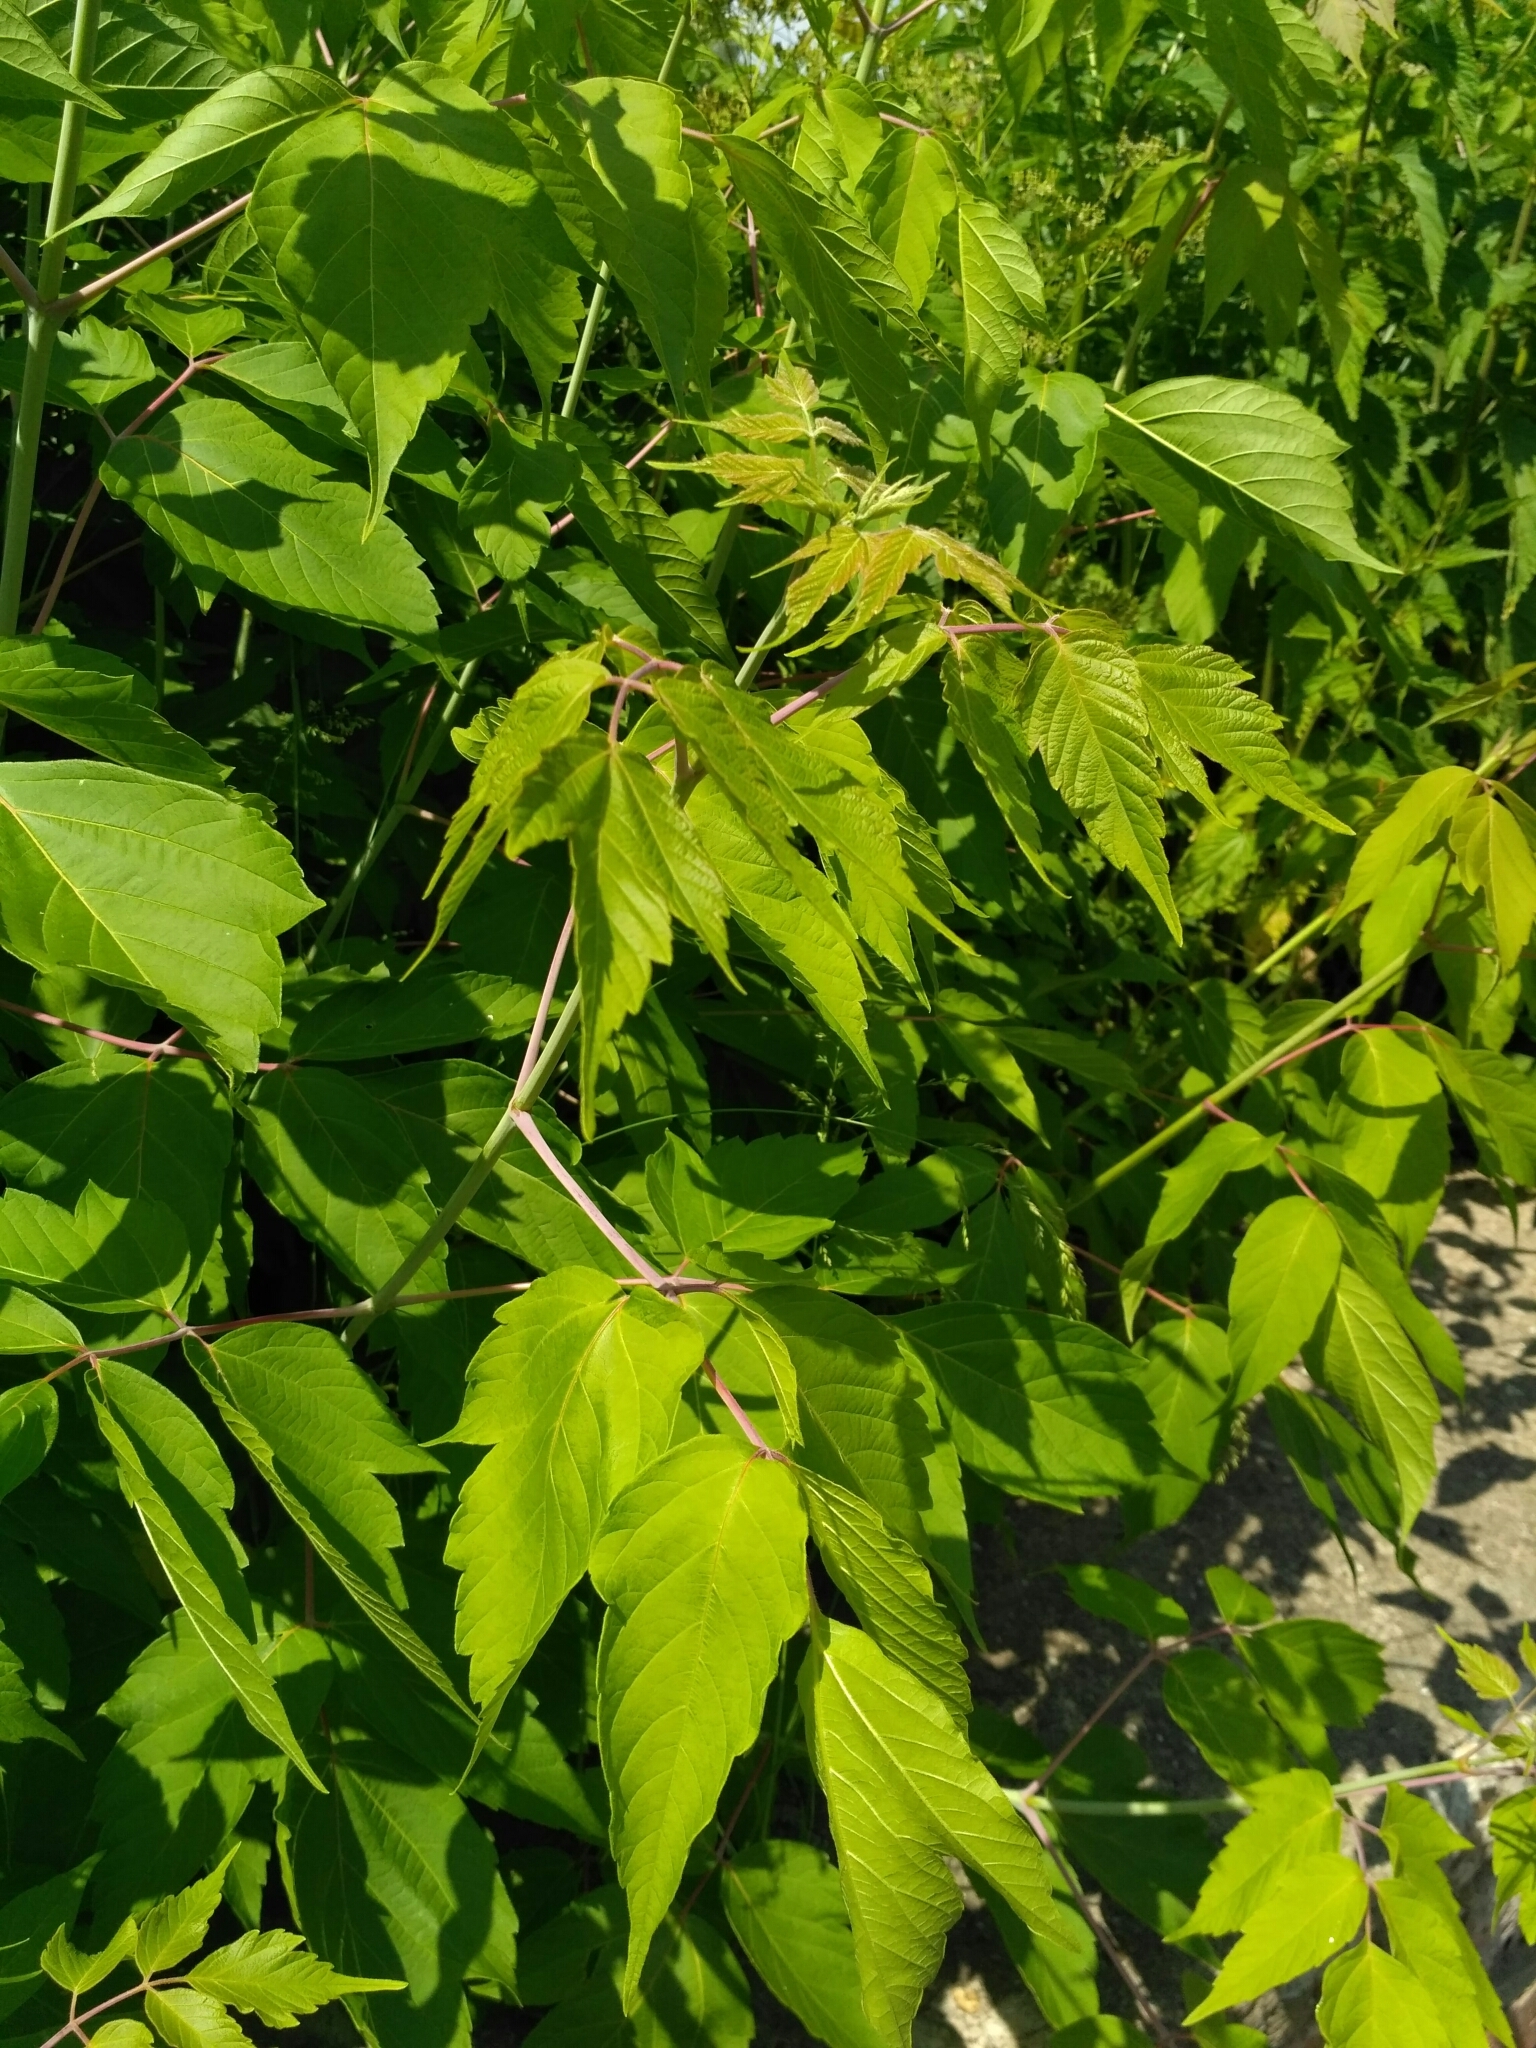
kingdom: Plantae
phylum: Tracheophyta
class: Magnoliopsida
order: Sapindales
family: Sapindaceae
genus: Acer
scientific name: Acer negundo
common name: Ashleaf maple
